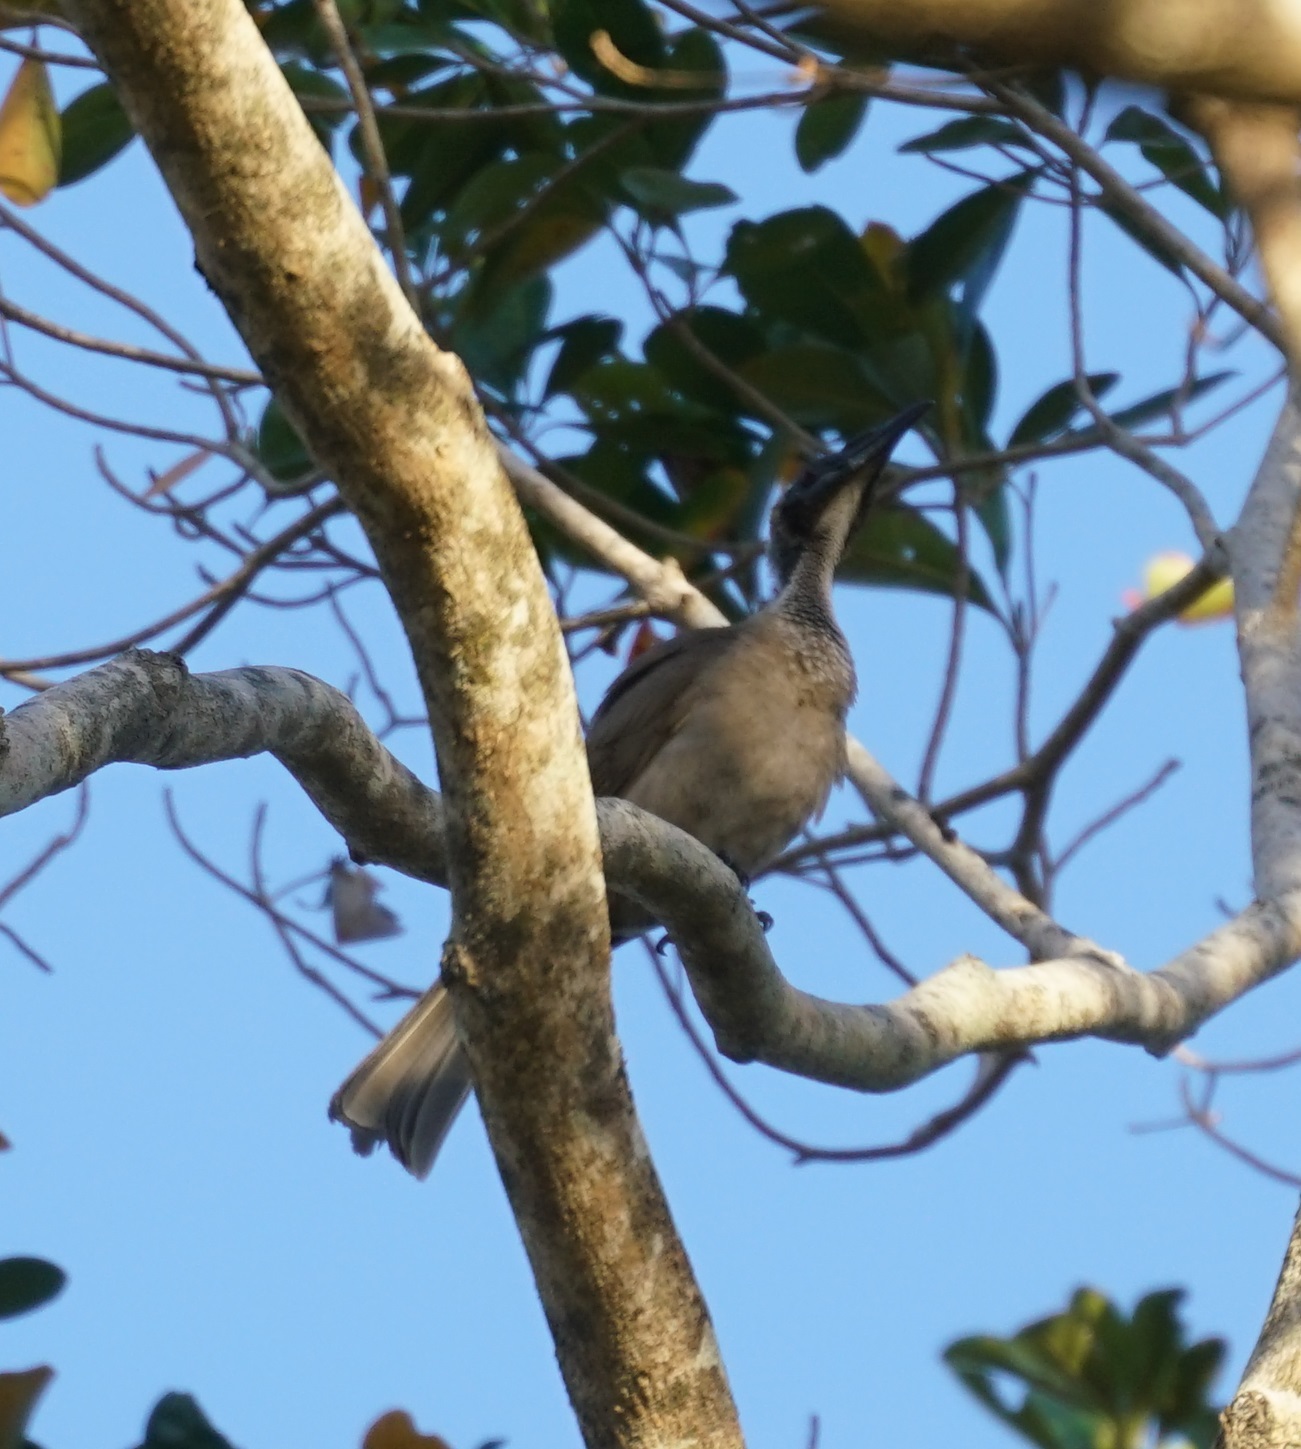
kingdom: Animalia
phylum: Chordata
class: Aves
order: Passeriformes
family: Meliphagidae
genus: Philemon
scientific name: Philemon buceroides
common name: Helmeted friarbird
